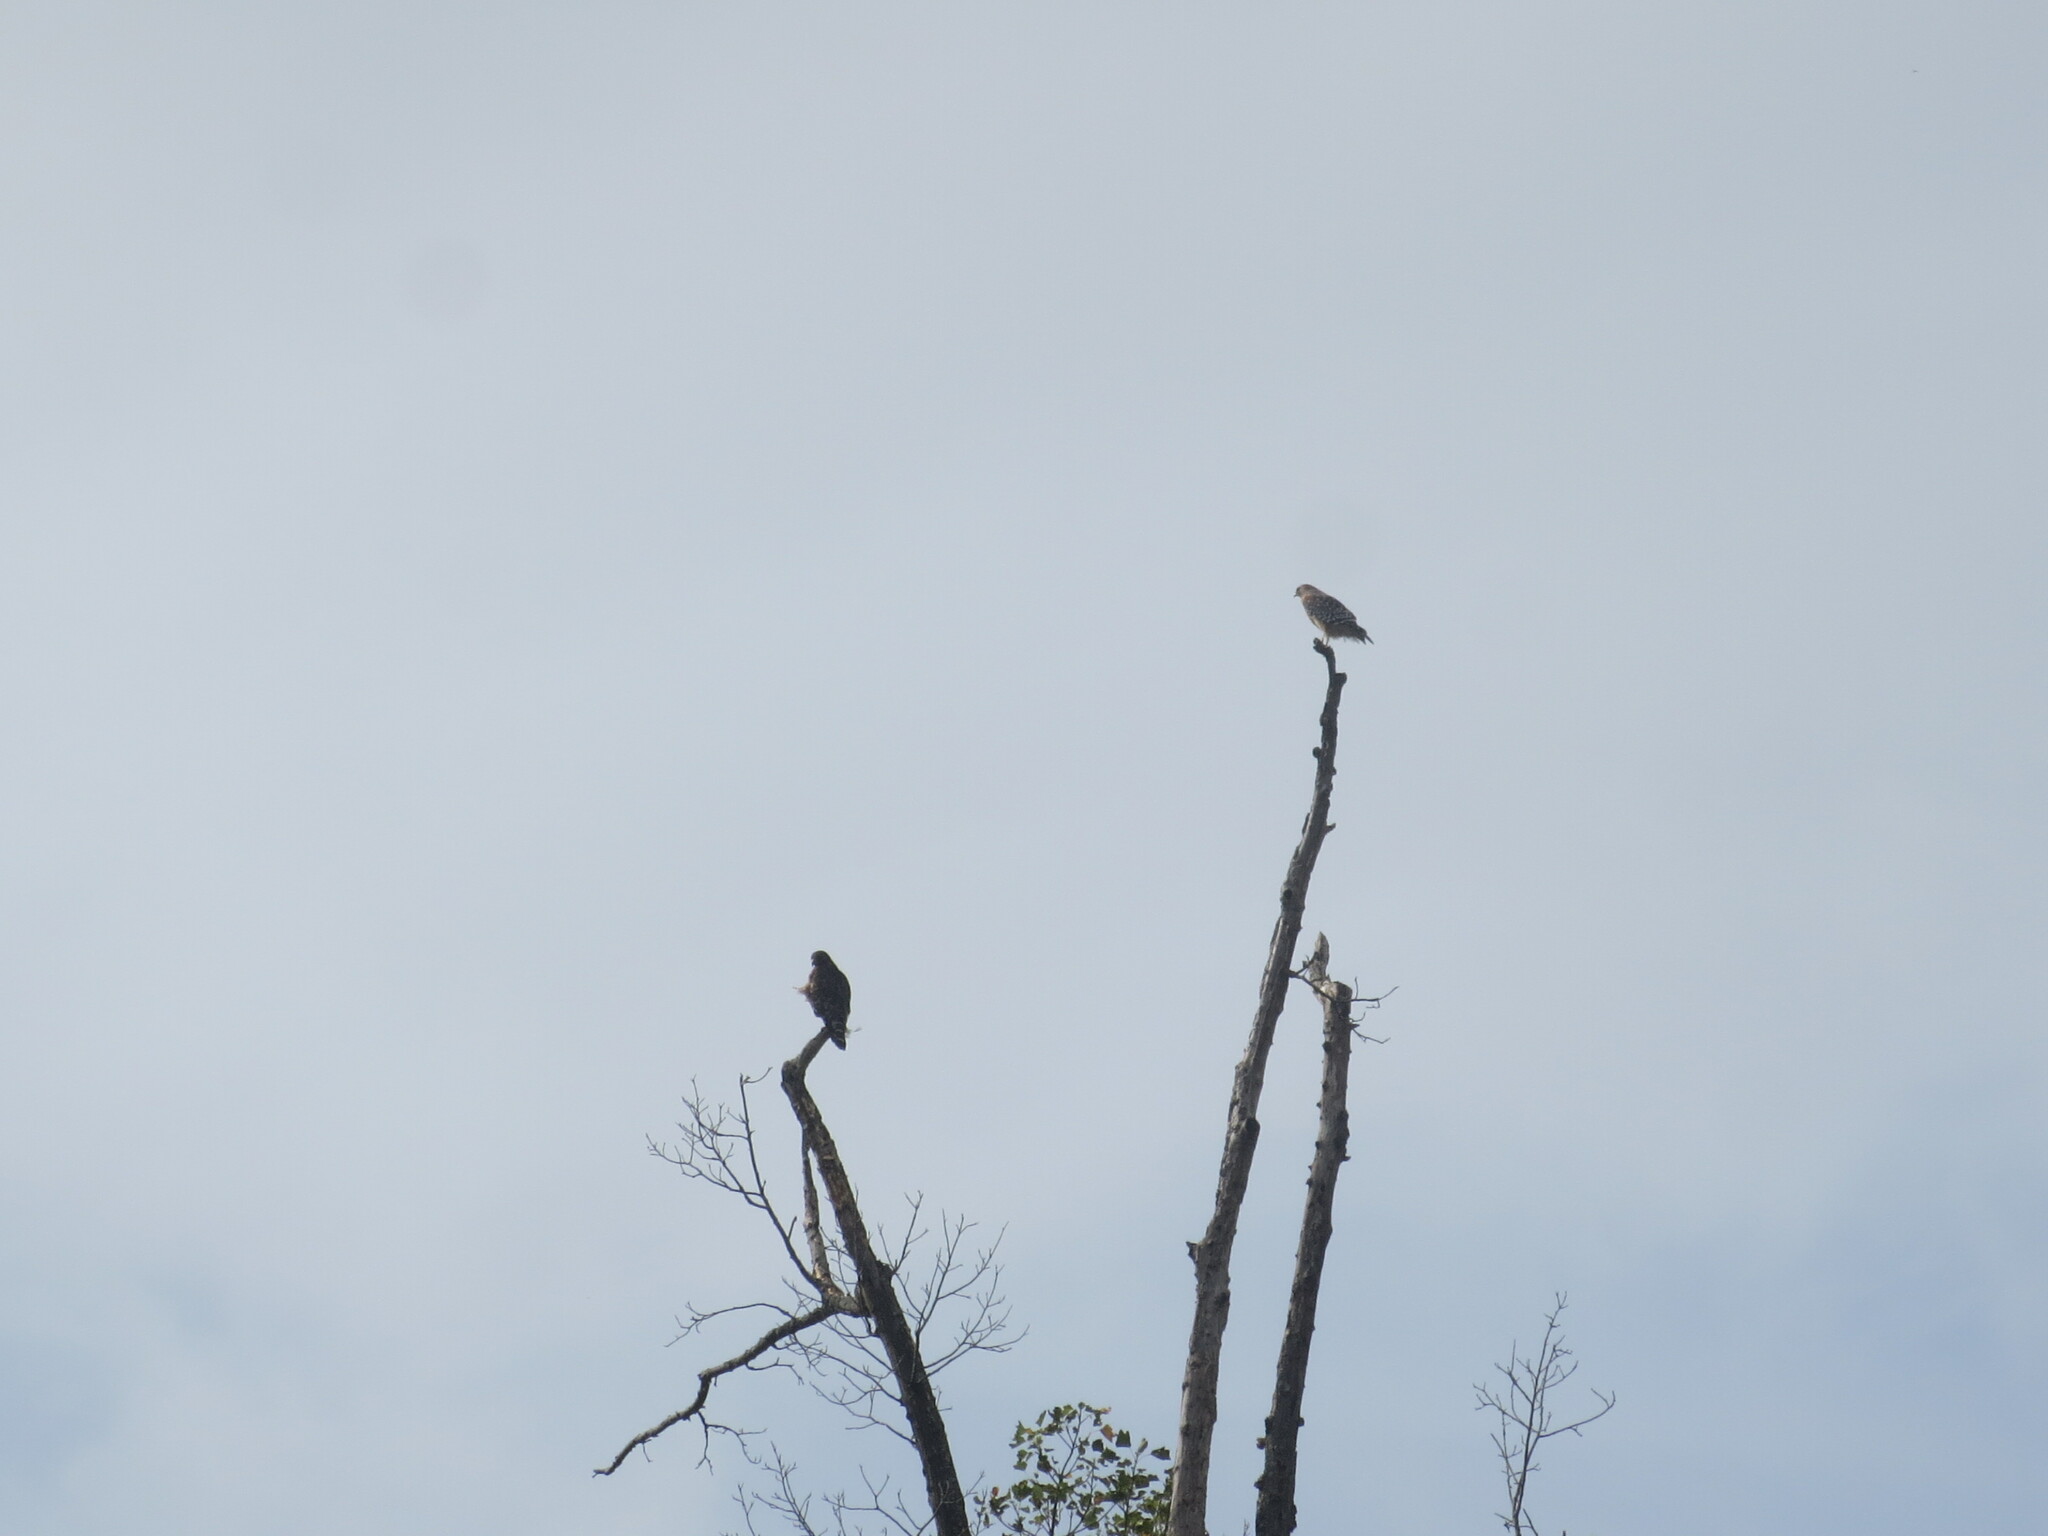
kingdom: Animalia
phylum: Chordata
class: Aves
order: Accipitriformes
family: Accipitridae
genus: Buteo
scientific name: Buteo lineatus
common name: Red-shouldered hawk
